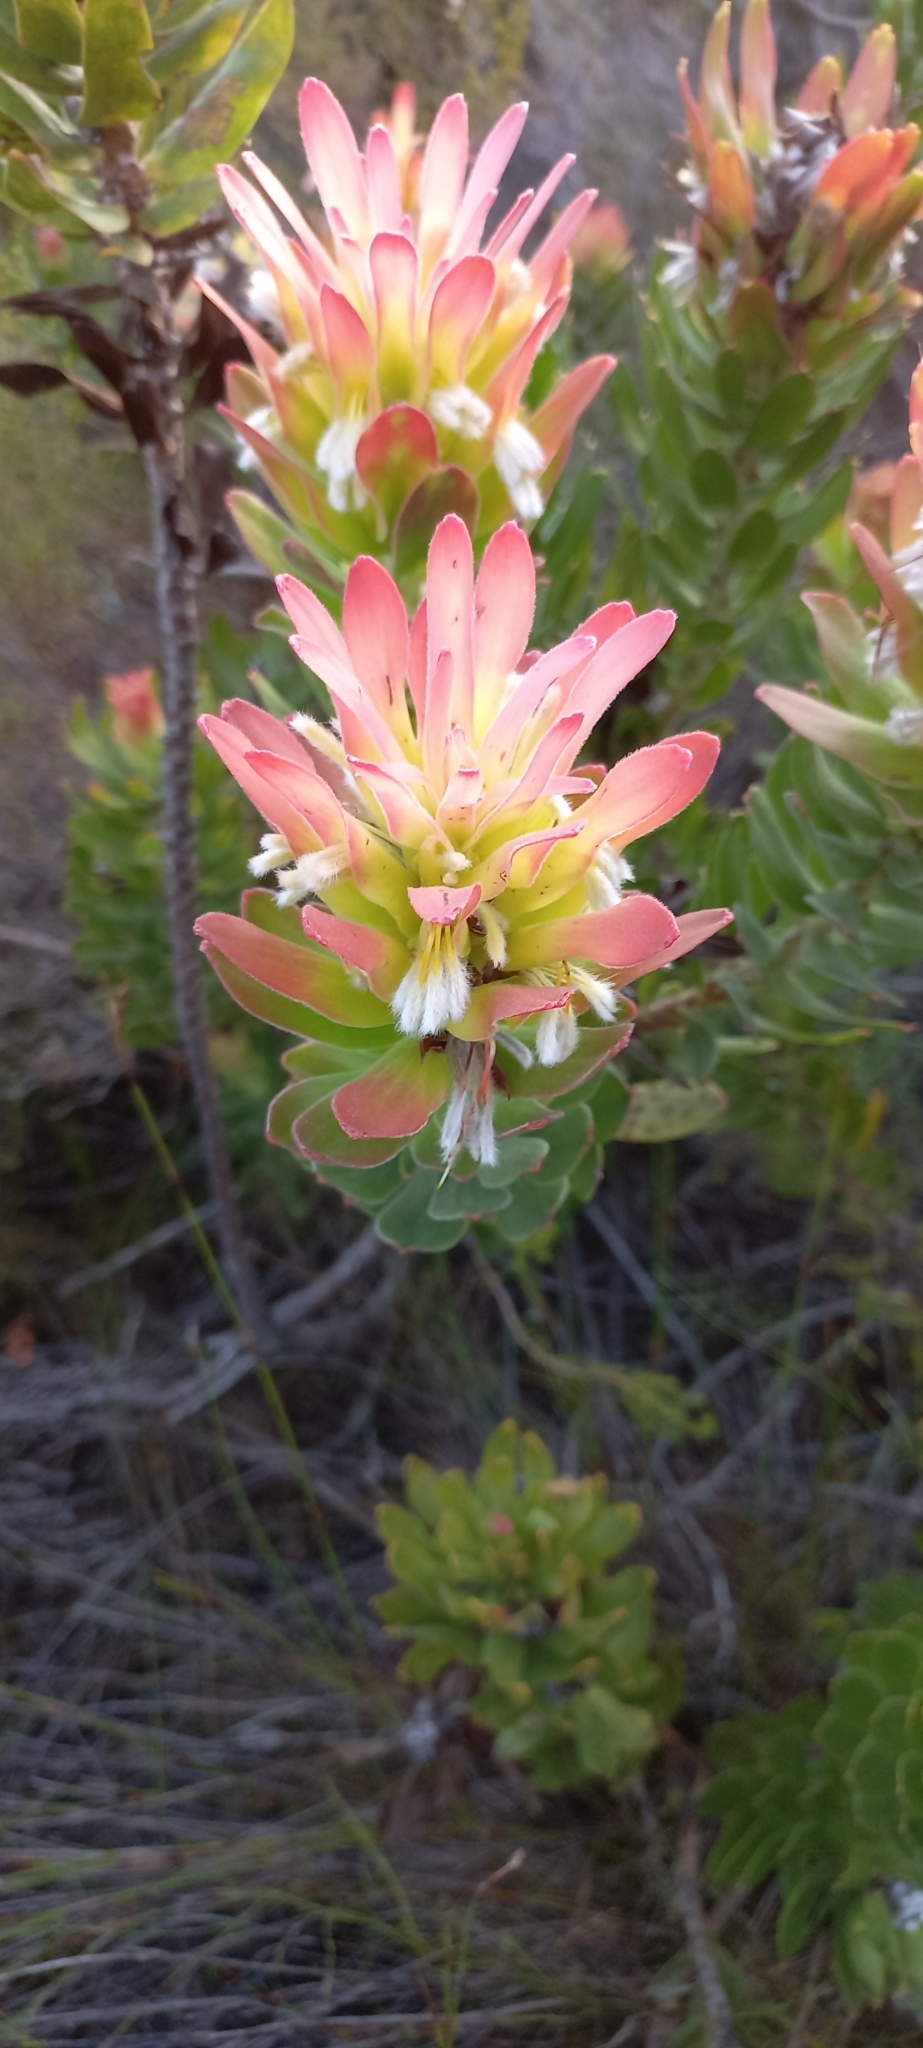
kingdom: Plantae
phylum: Tracheophyta
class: Magnoliopsida
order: Proteales
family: Proteaceae
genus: Mimetes
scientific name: Mimetes cucullatus
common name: Common pagoda
